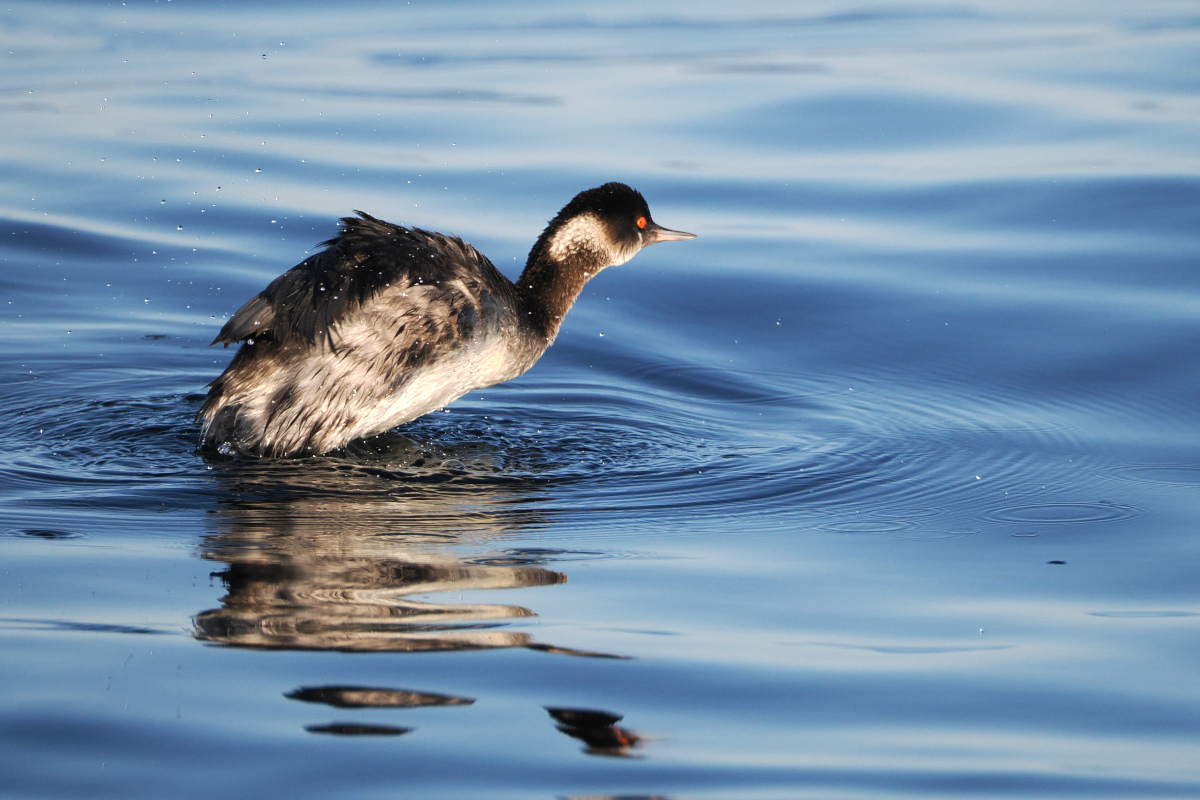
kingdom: Animalia
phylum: Chordata
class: Aves
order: Podicipediformes
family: Podicipedidae
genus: Podiceps
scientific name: Podiceps nigricollis
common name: Black-necked grebe
